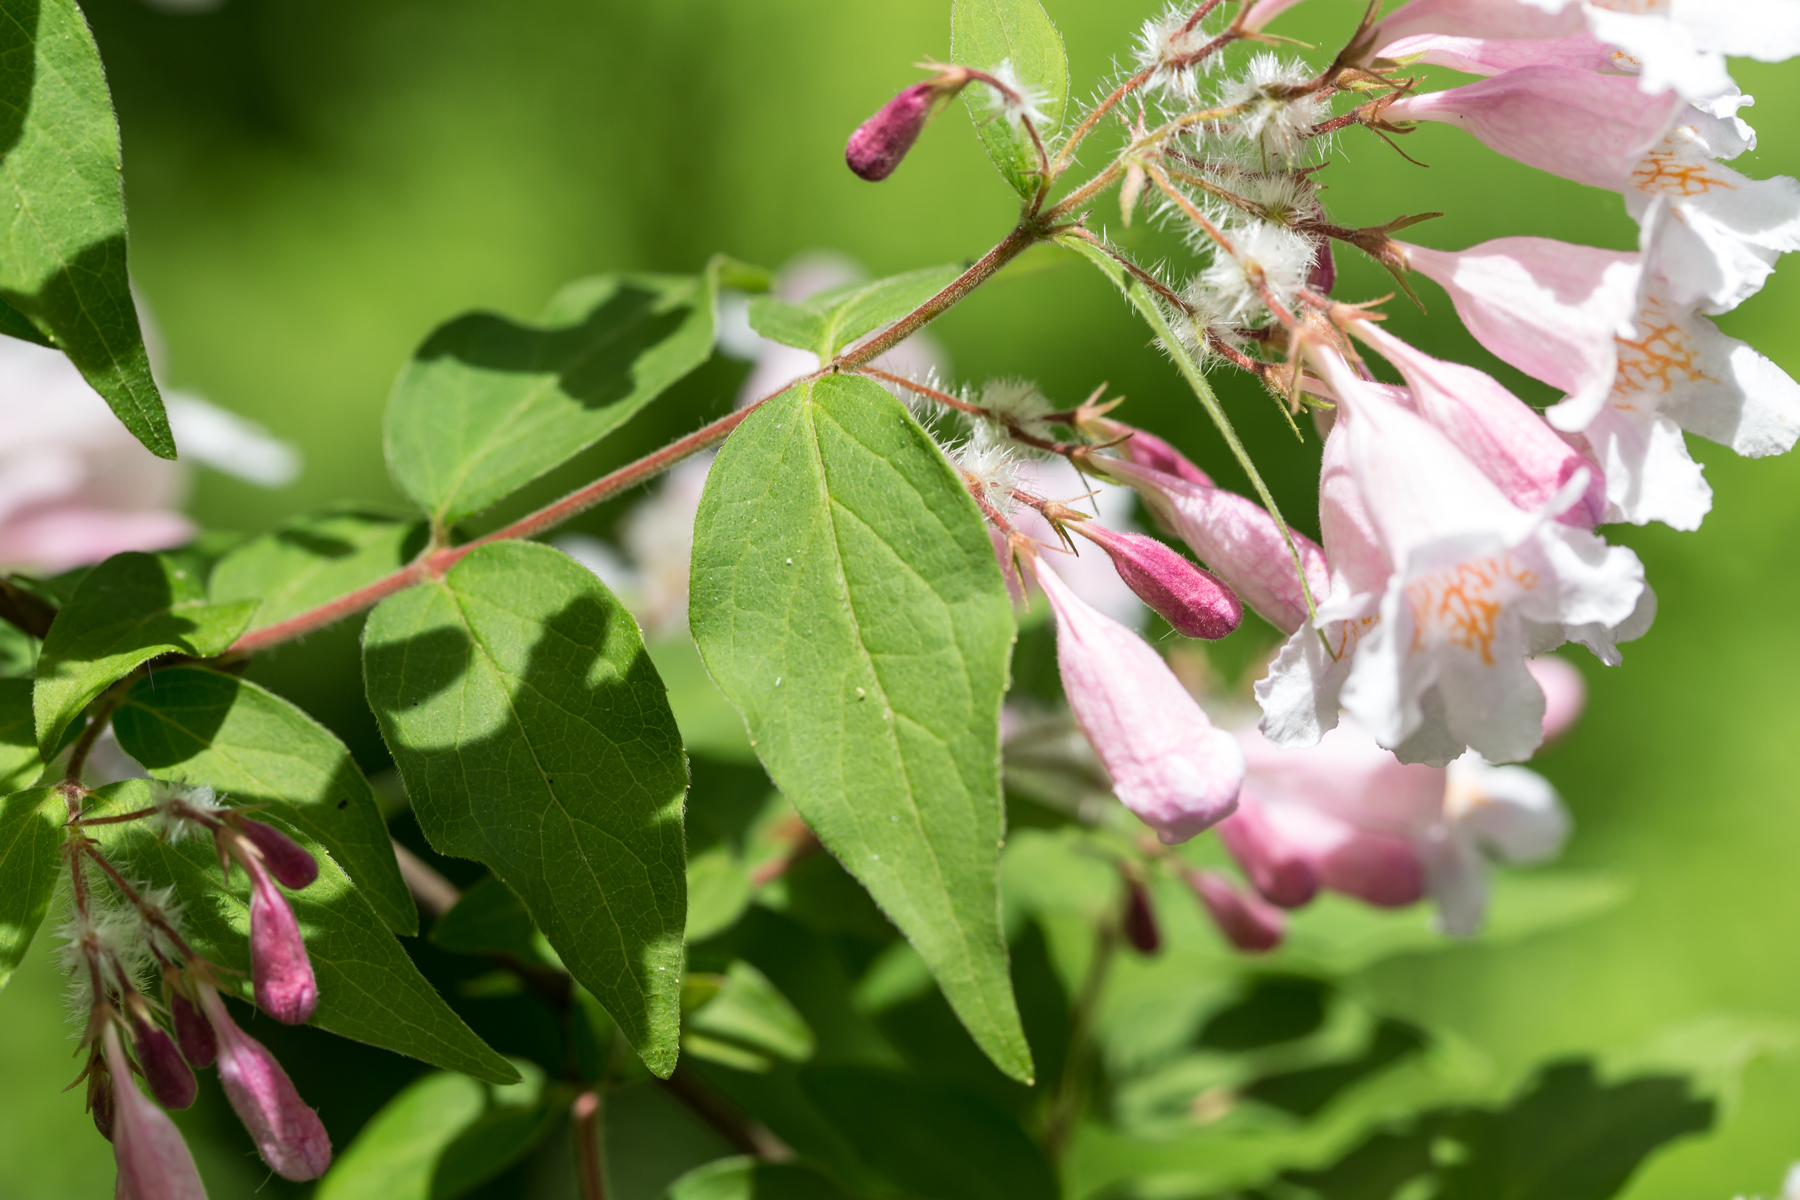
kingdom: Plantae
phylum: Tracheophyta
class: Magnoliopsida
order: Dipsacales
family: Caprifoliaceae
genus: Kolkwitzia
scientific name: Kolkwitzia amabilis
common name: Beautybush
